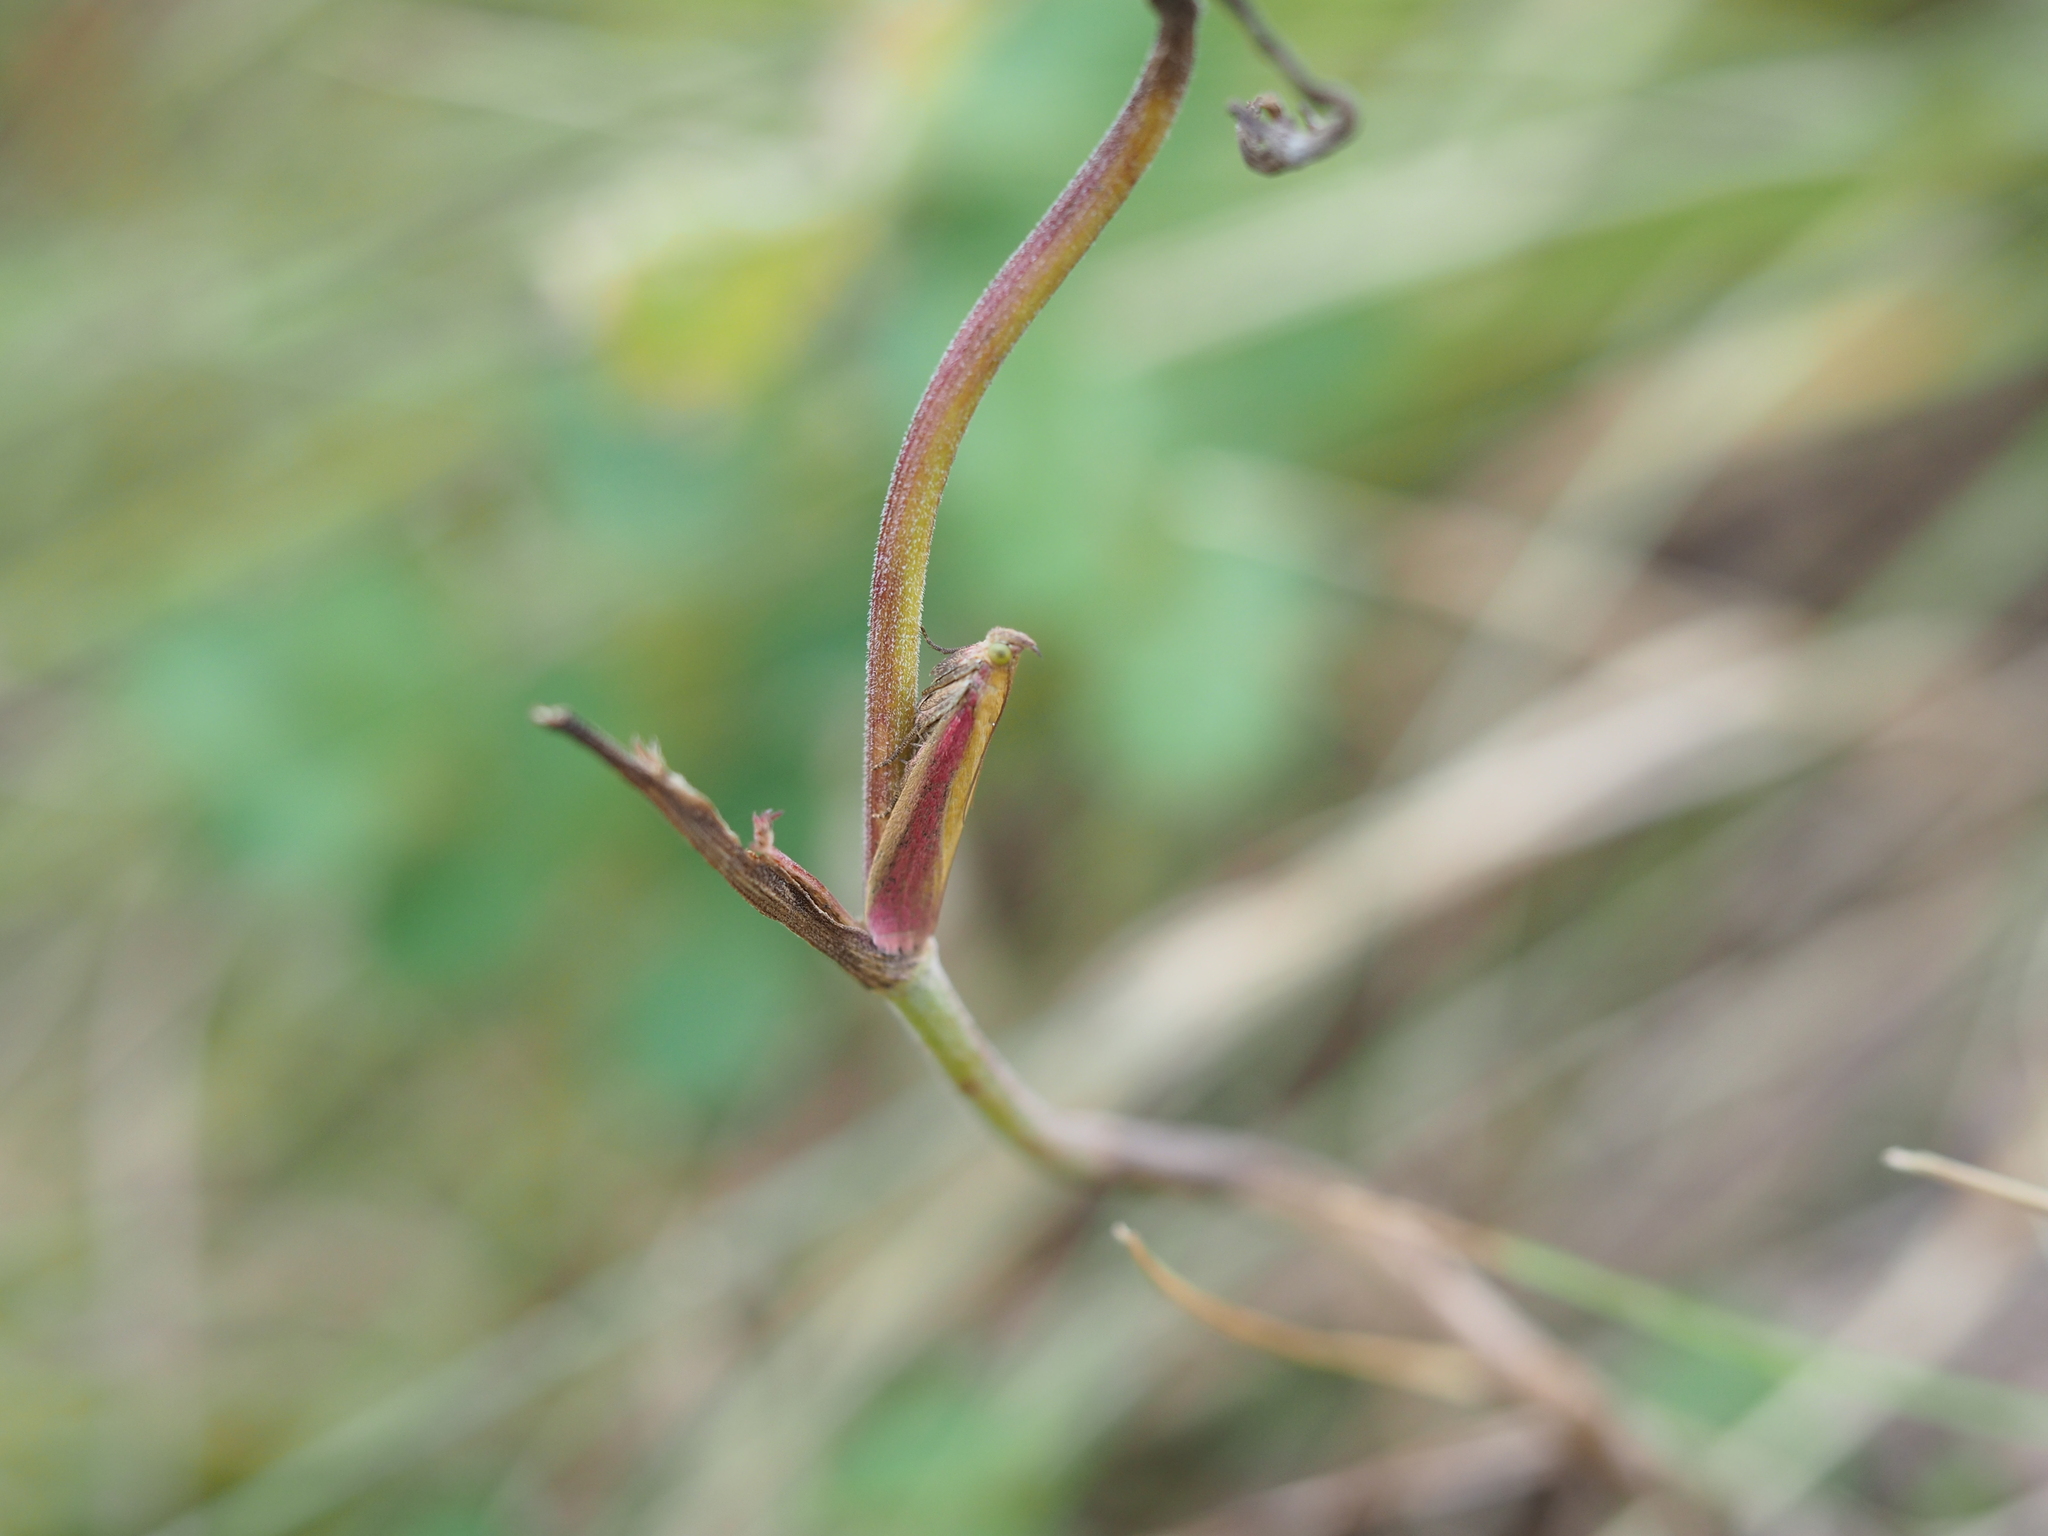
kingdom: Animalia
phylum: Arthropoda
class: Insecta
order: Lepidoptera
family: Pyralidae
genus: Oncocera
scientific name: Oncocera semirubella
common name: Rosy-striped knot-horn
